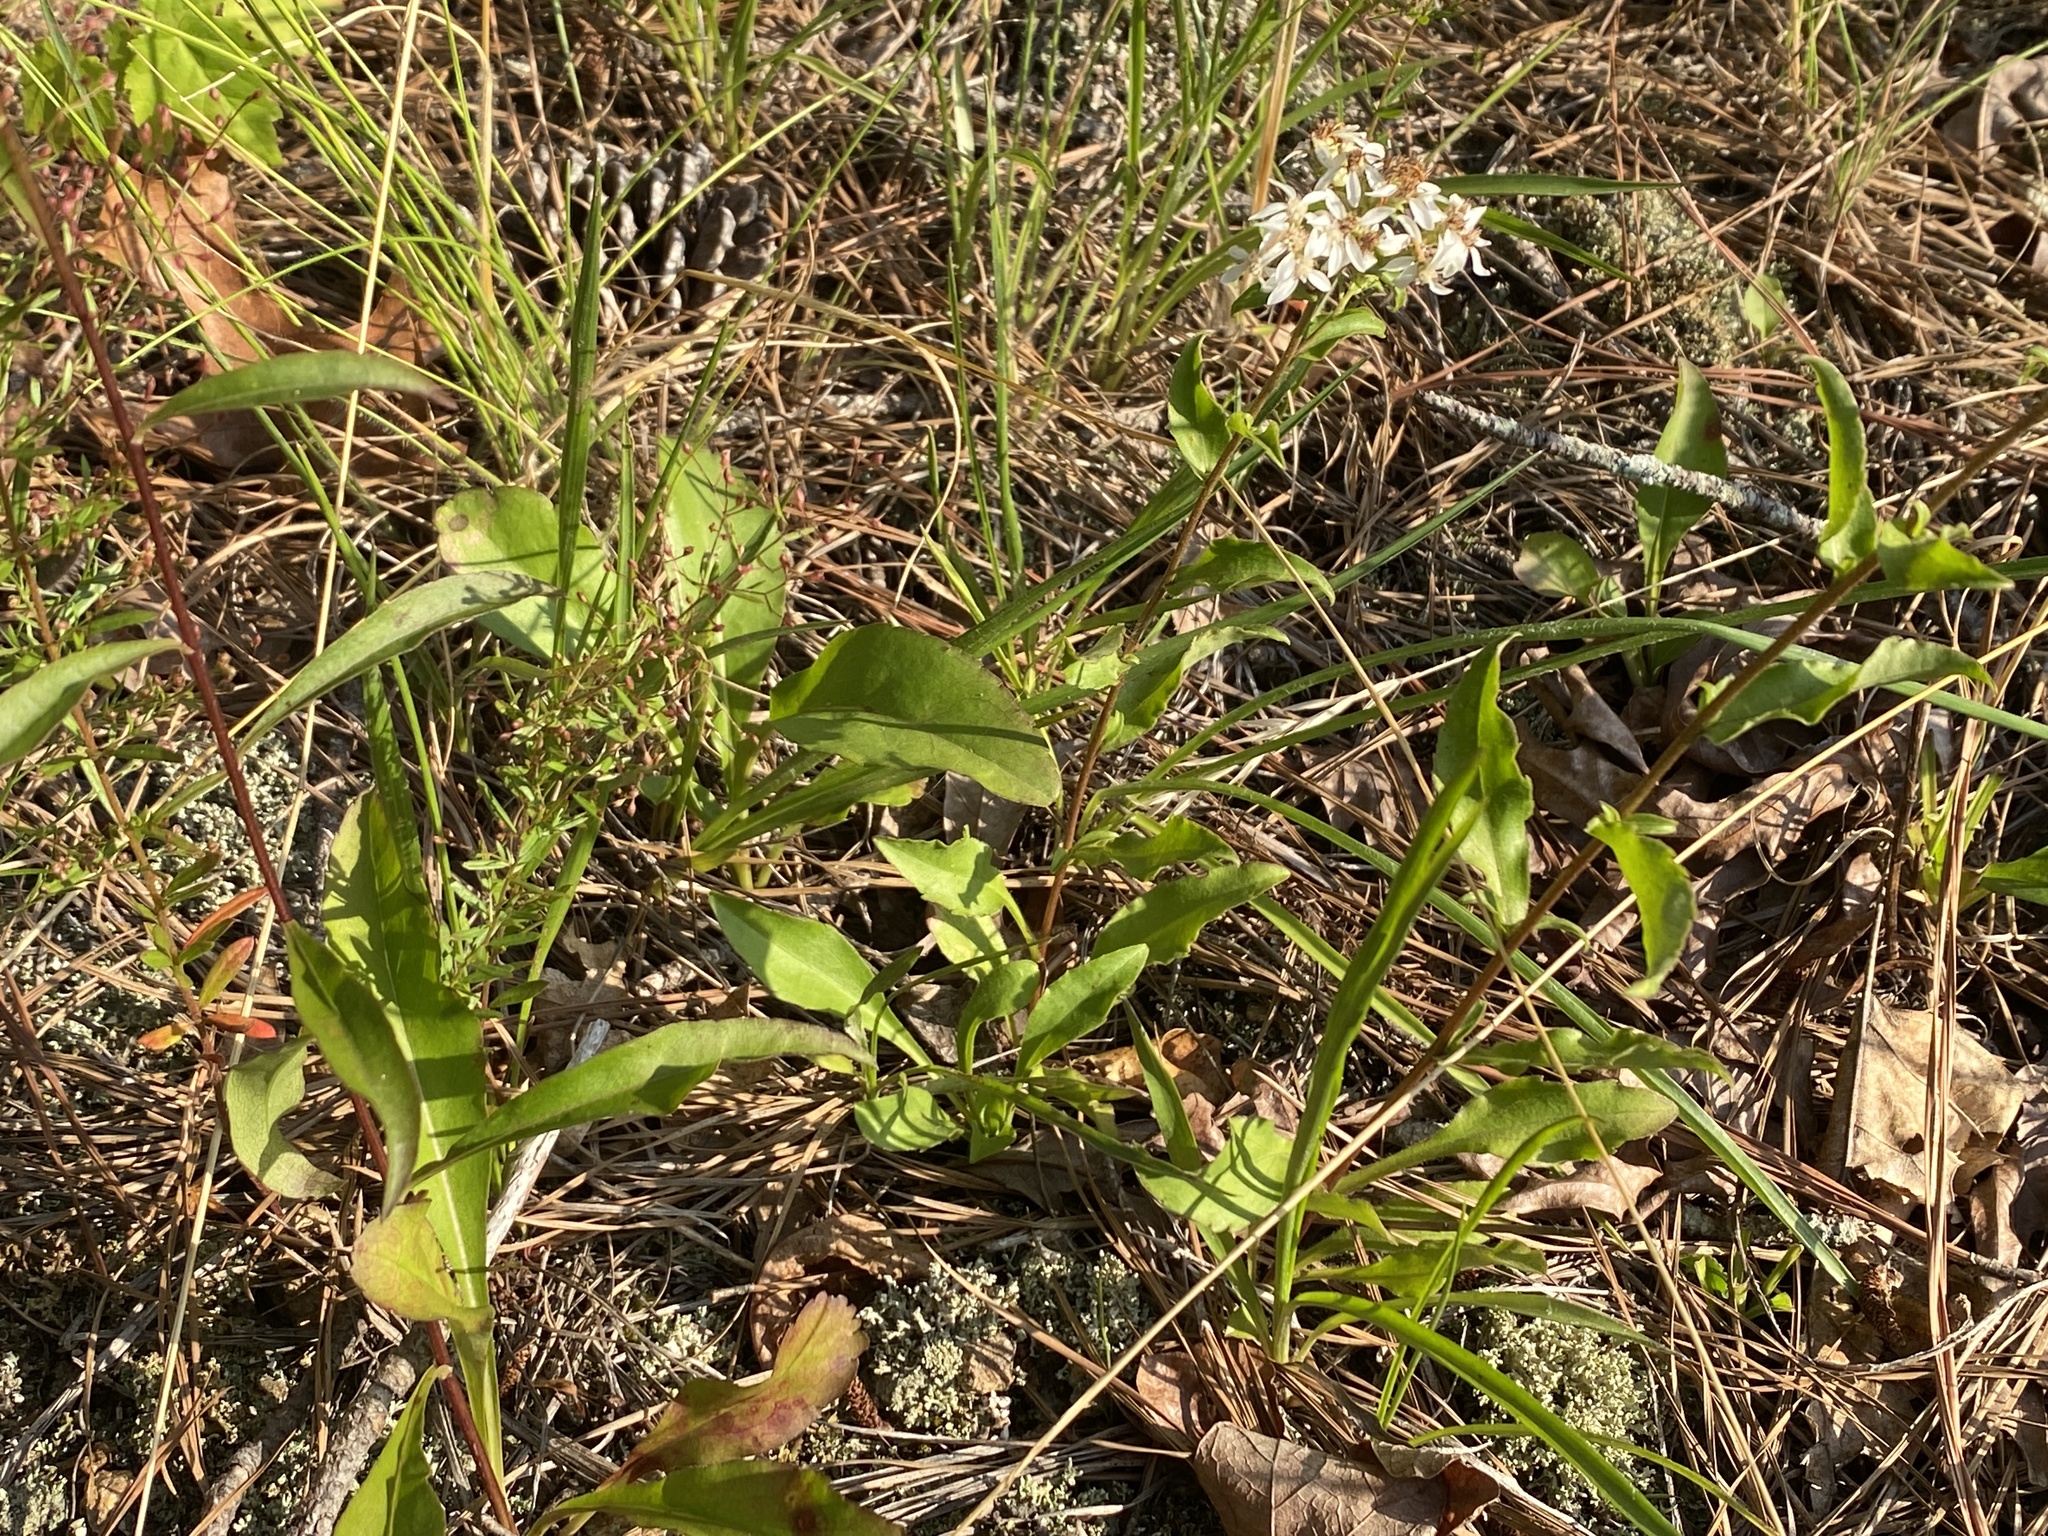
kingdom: Plantae
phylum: Tracheophyta
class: Magnoliopsida
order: Asterales
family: Asteraceae
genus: Sericocarpus
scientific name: Sericocarpus asteroides
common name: Toothed white-top aster
